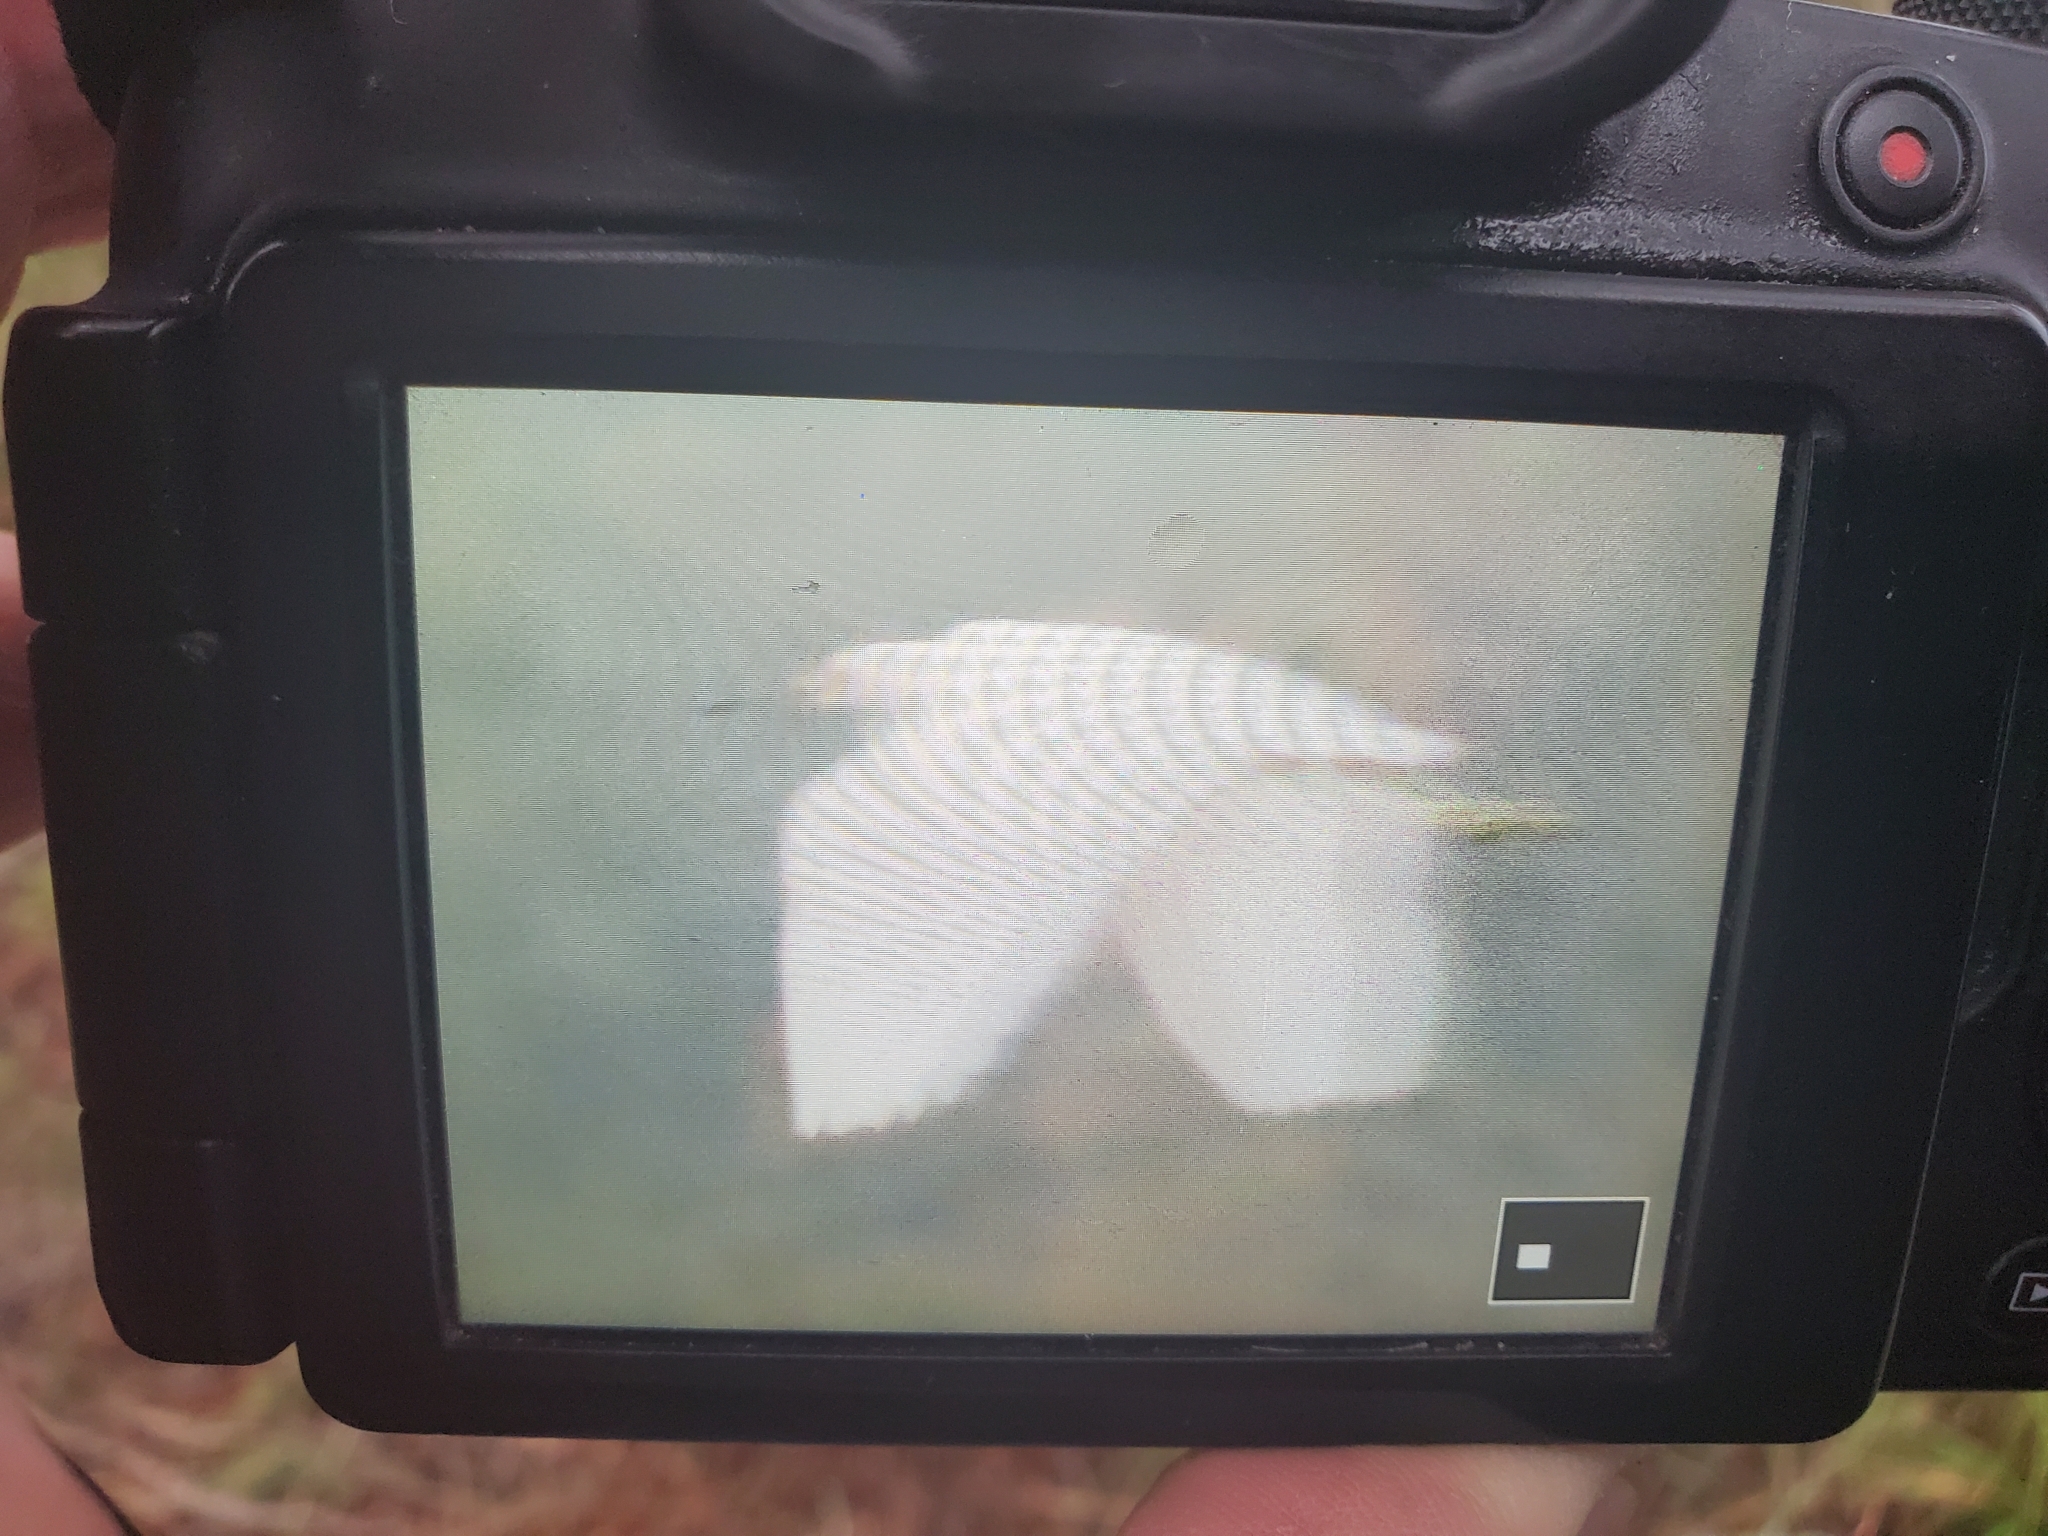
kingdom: Animalia
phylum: Chordata
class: Aves
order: Pelecaniformes
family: Ardeidae
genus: Egretta
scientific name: Egretta thula
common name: Snowy egret
